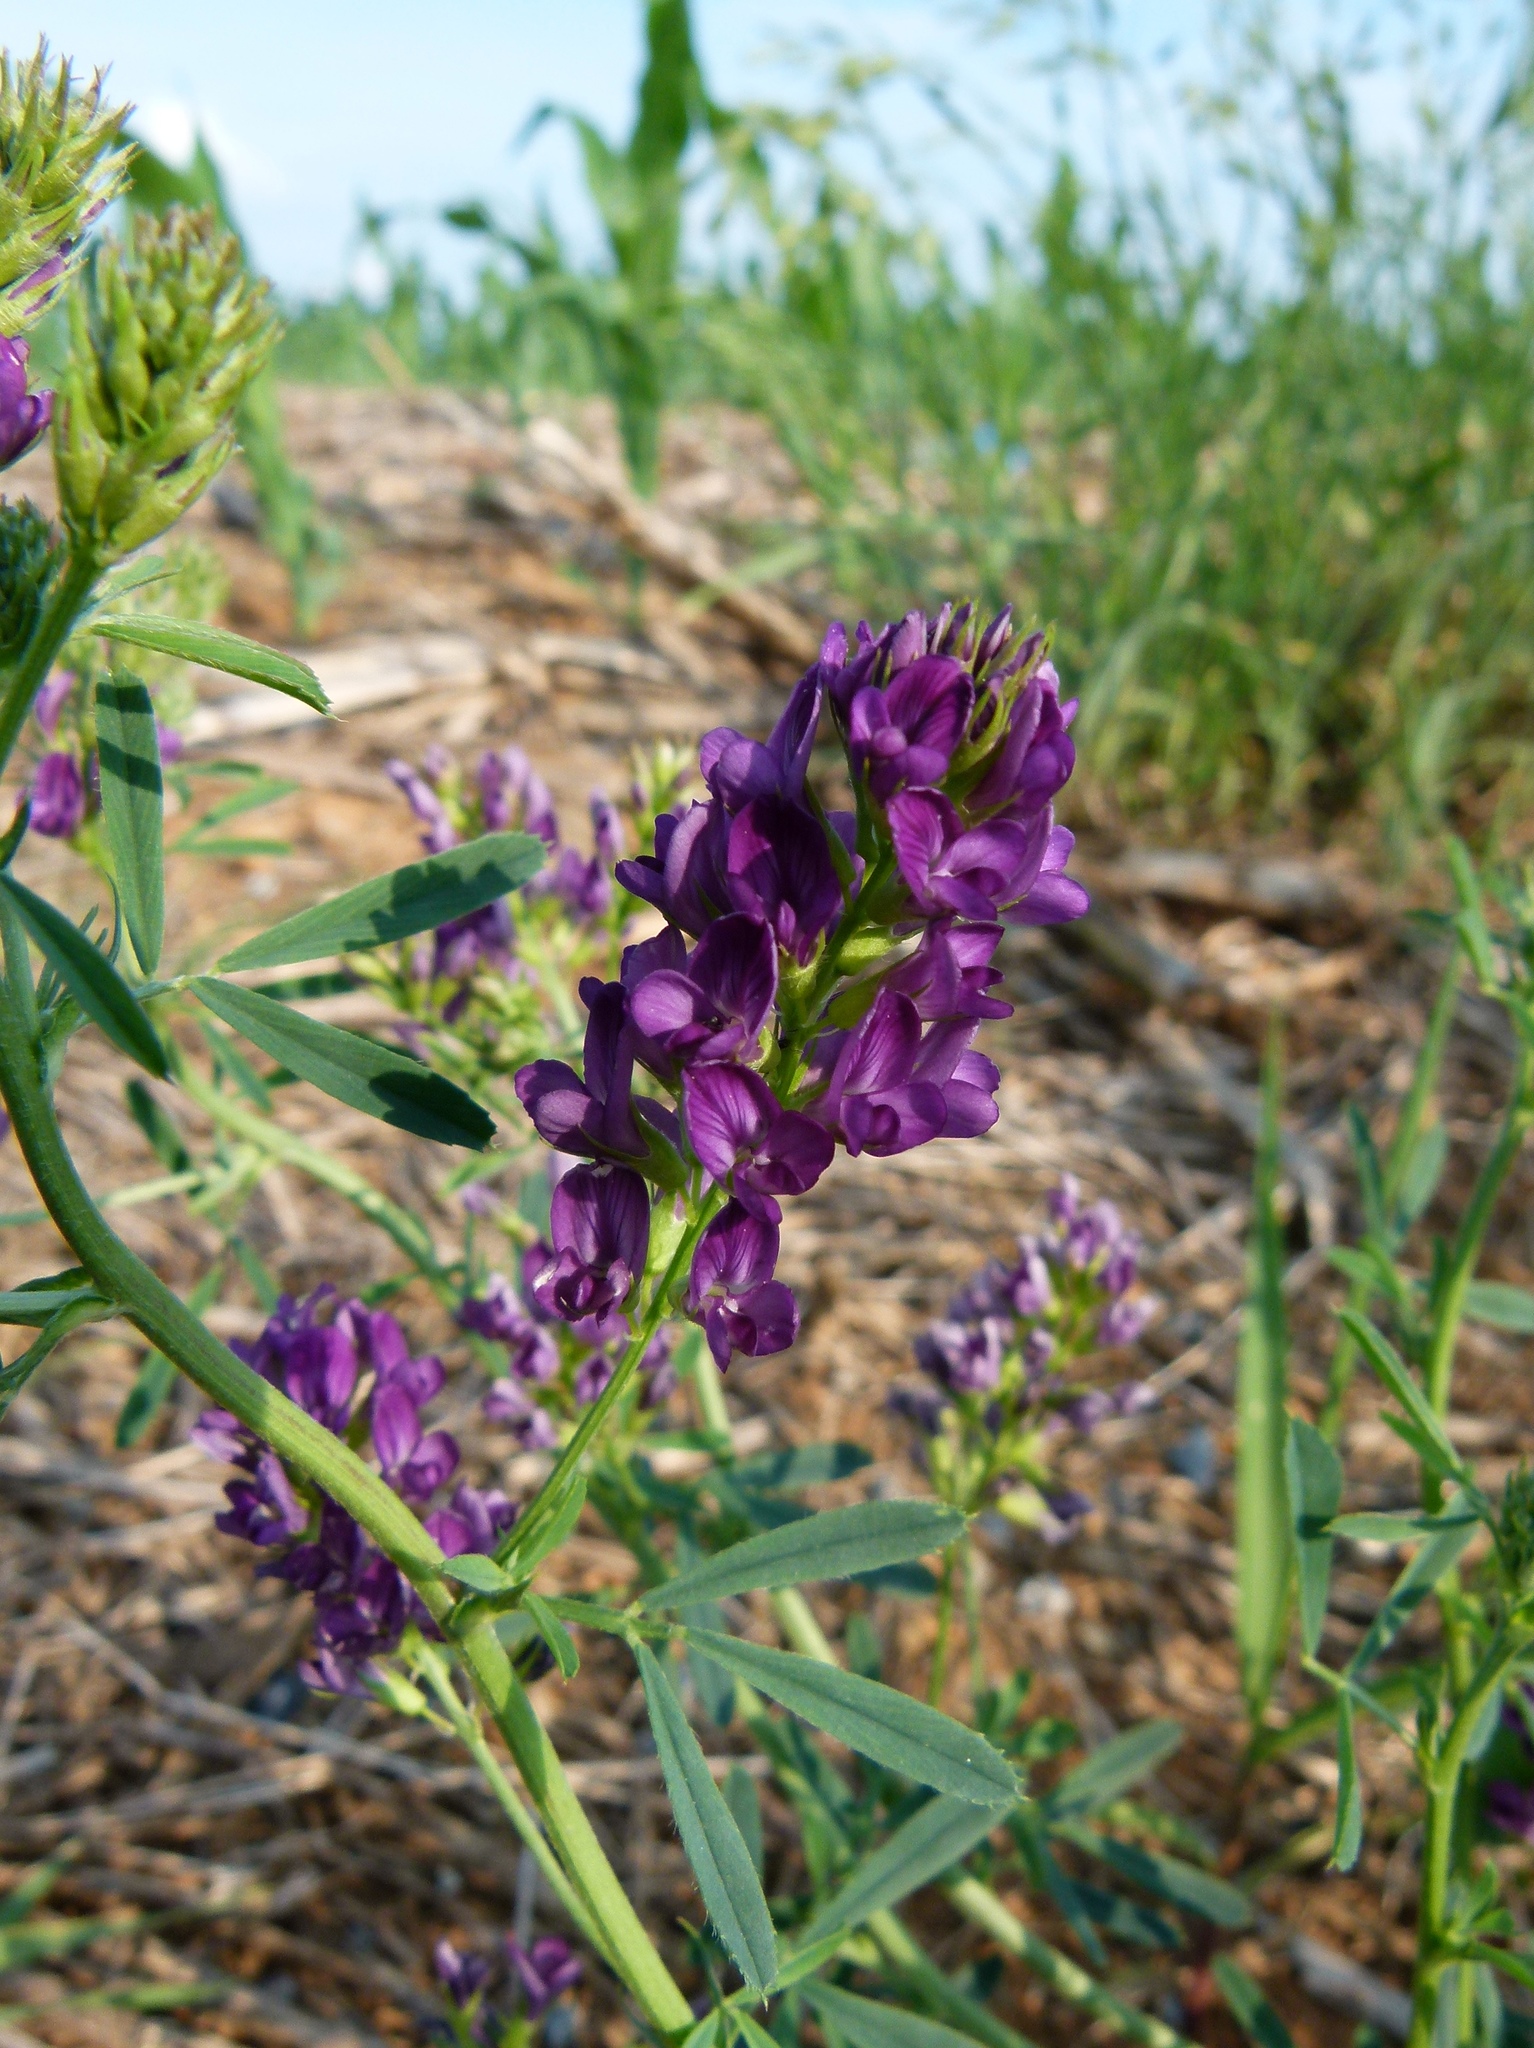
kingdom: Plantae
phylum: Tracheophyta
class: Magnoliopsida
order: Fabales
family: Fabaceae
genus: Medicago
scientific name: Medicago sativa
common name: Alfalfa
